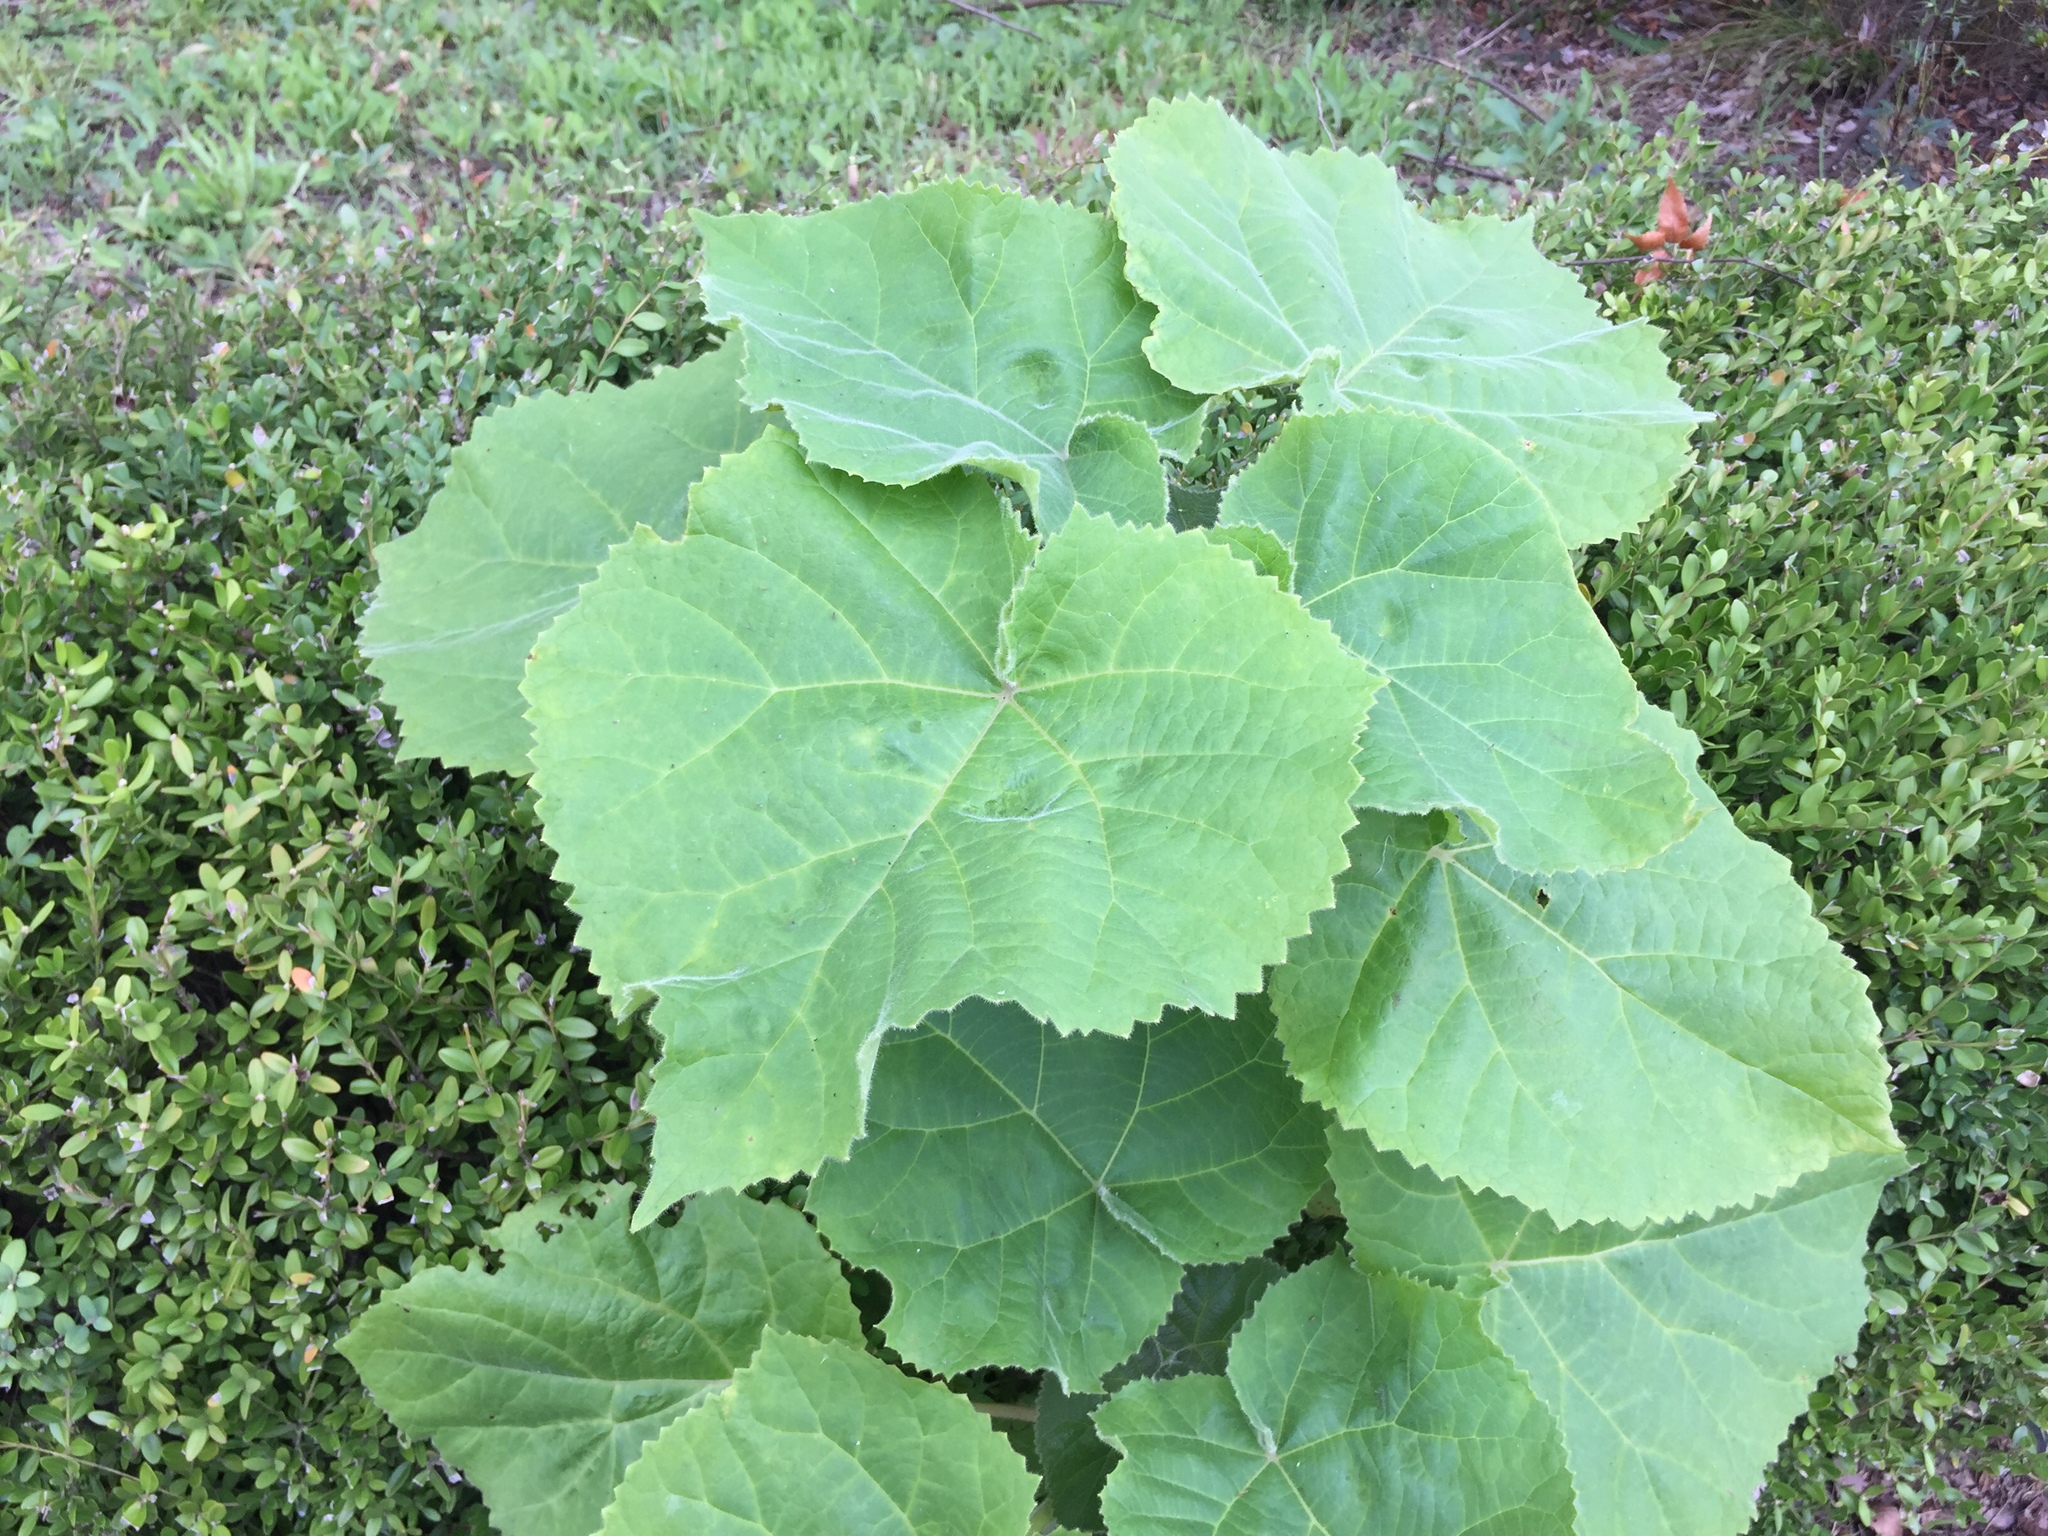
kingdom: Plantae
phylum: Tracheophyta
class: Magnoliopsida
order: Lamiales
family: Paulowniaceae
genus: Paulownia
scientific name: Paulownia tomentosa
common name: Foxglove-tree
